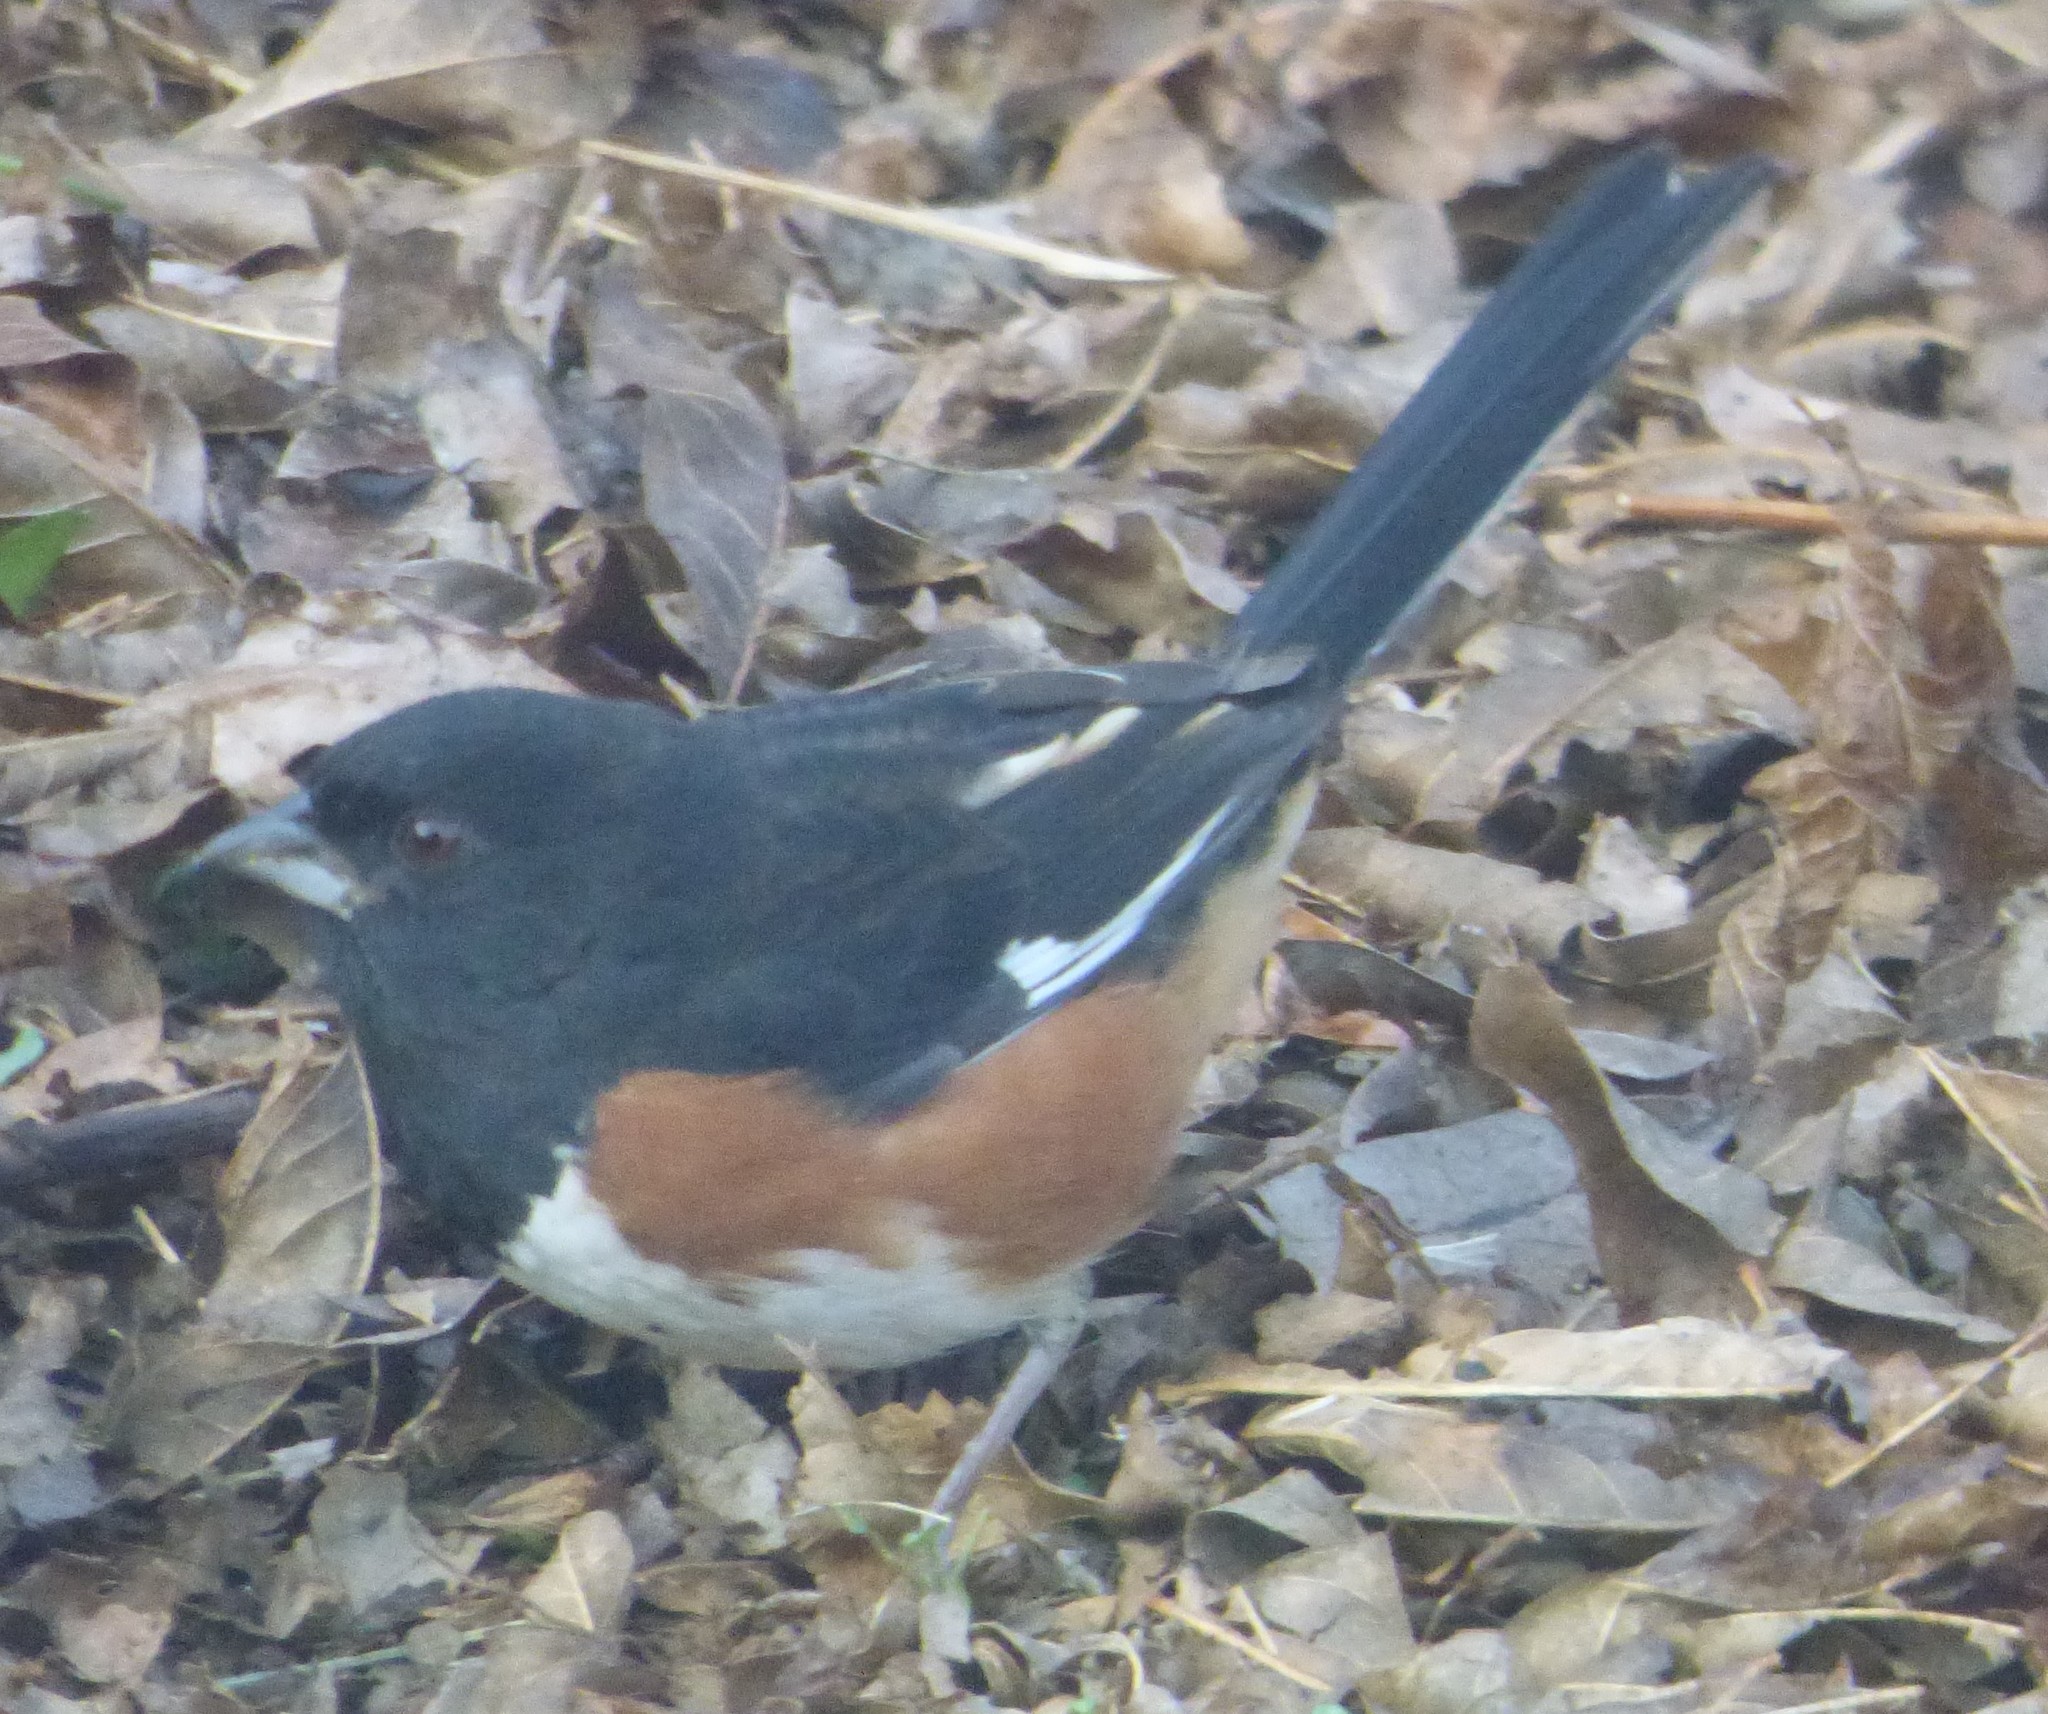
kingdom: Animalia
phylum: Chordata
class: Aves
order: Passeriformes
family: Passerellidae
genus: Pipilo
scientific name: Pipilo erythrophthalmus
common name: Eastern towhee
